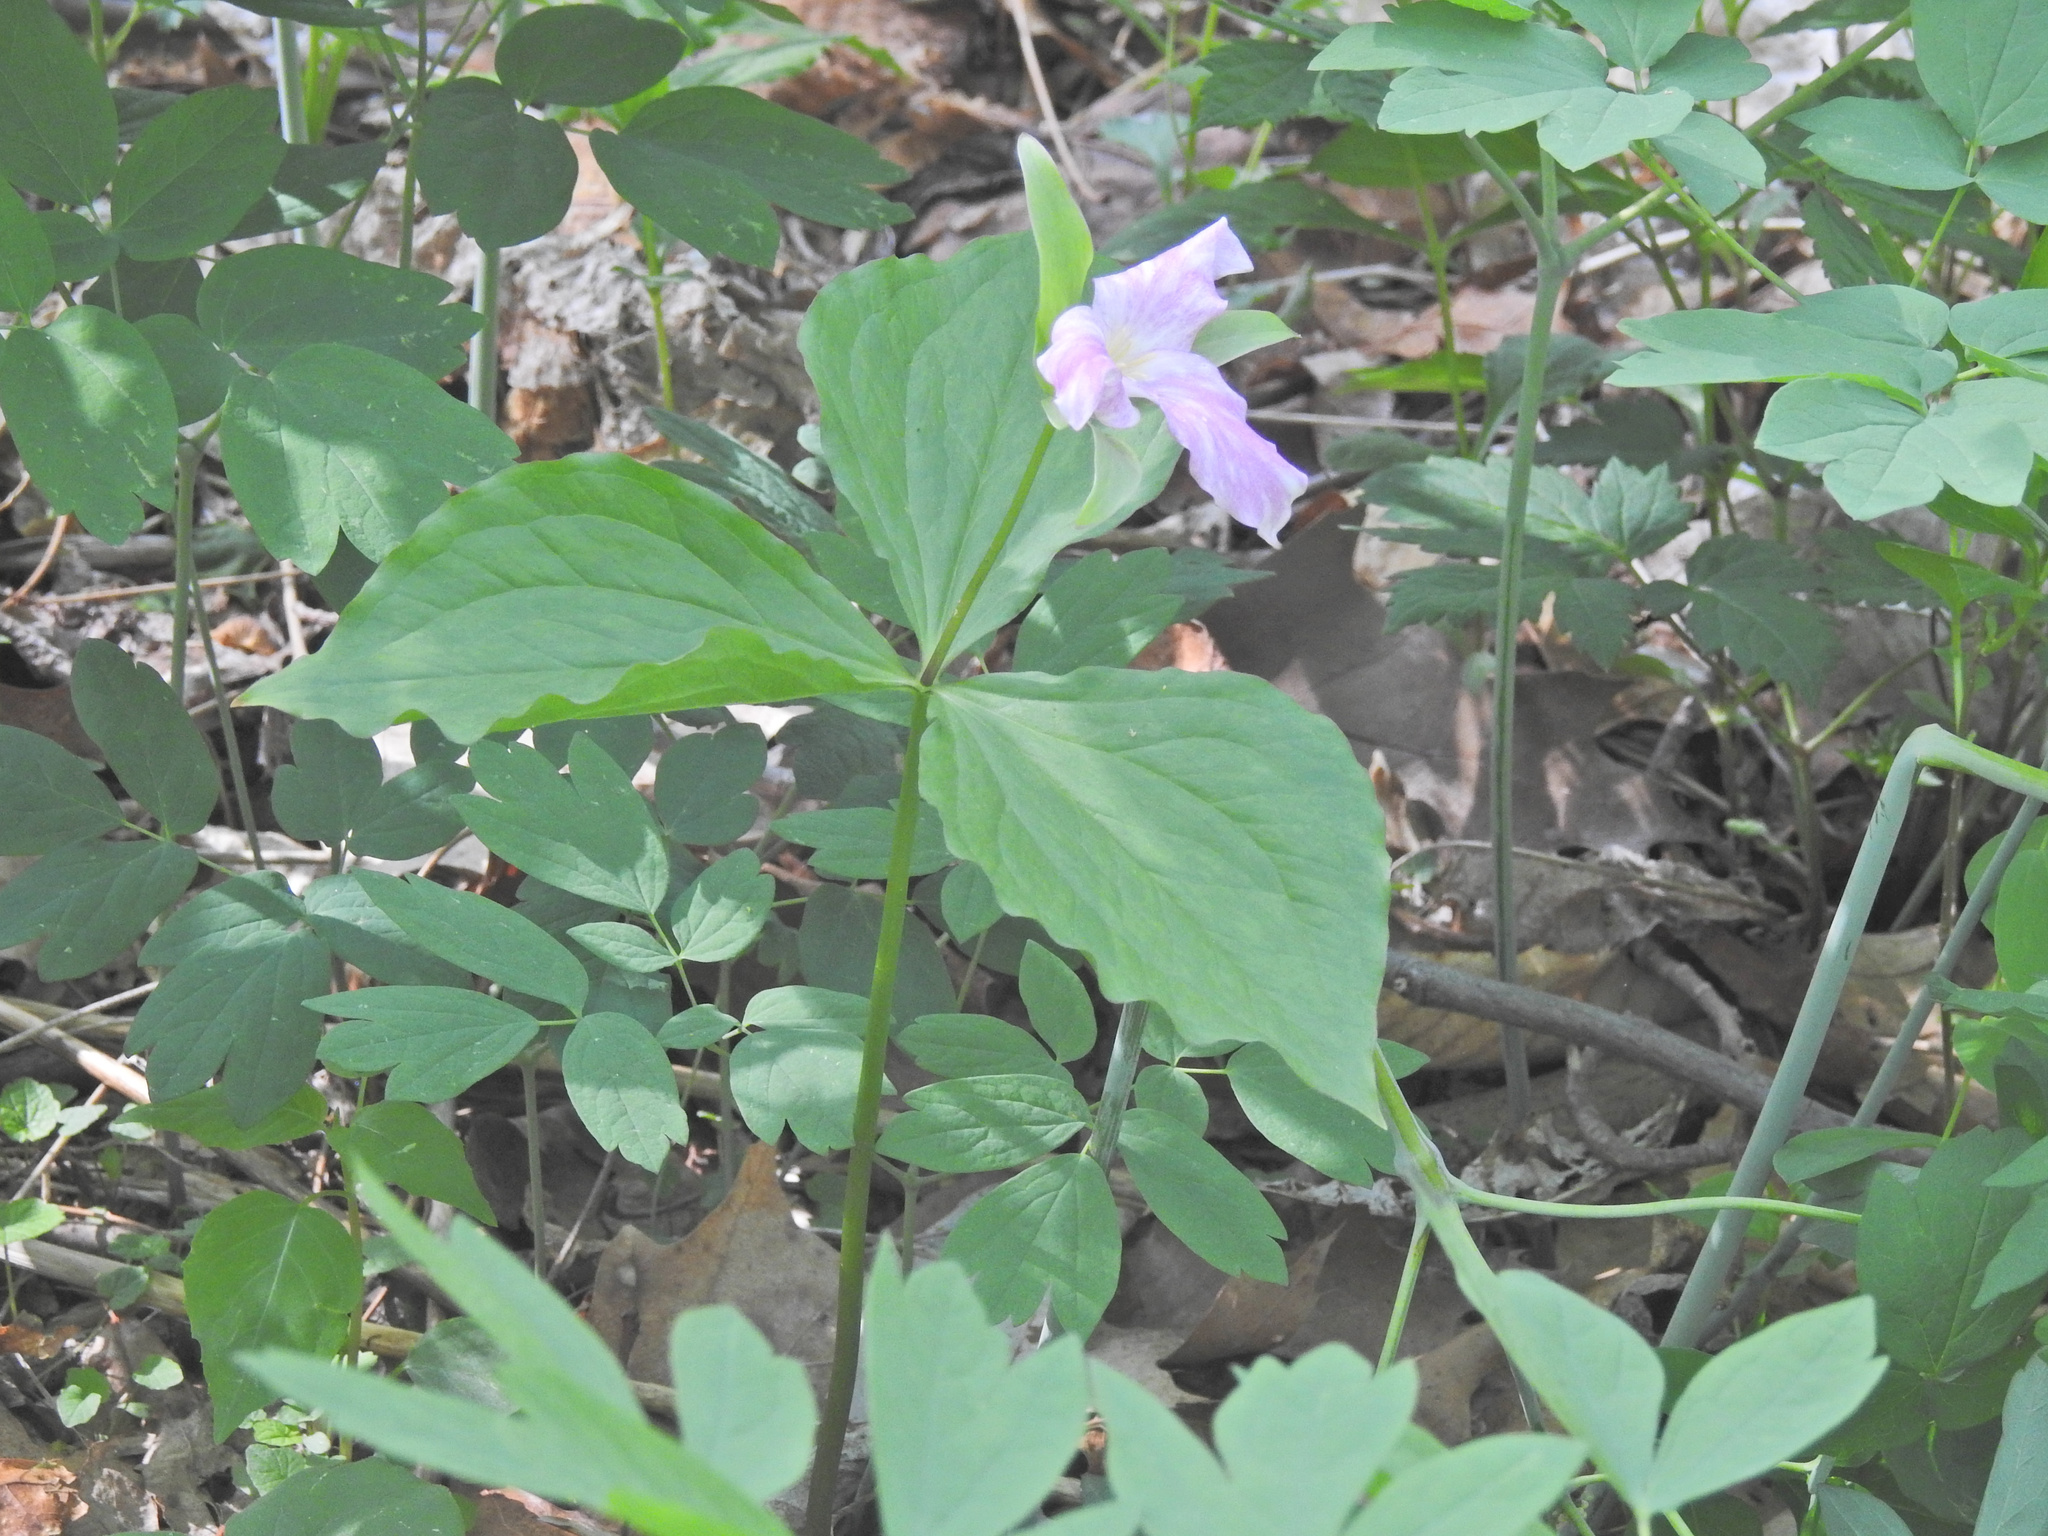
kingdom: Plantae
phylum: Tracheophyta
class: Liliopsida
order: Liliales
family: Melanthiaceae
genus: Trillium
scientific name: Trillium grandiflorum
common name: Great white trillium
